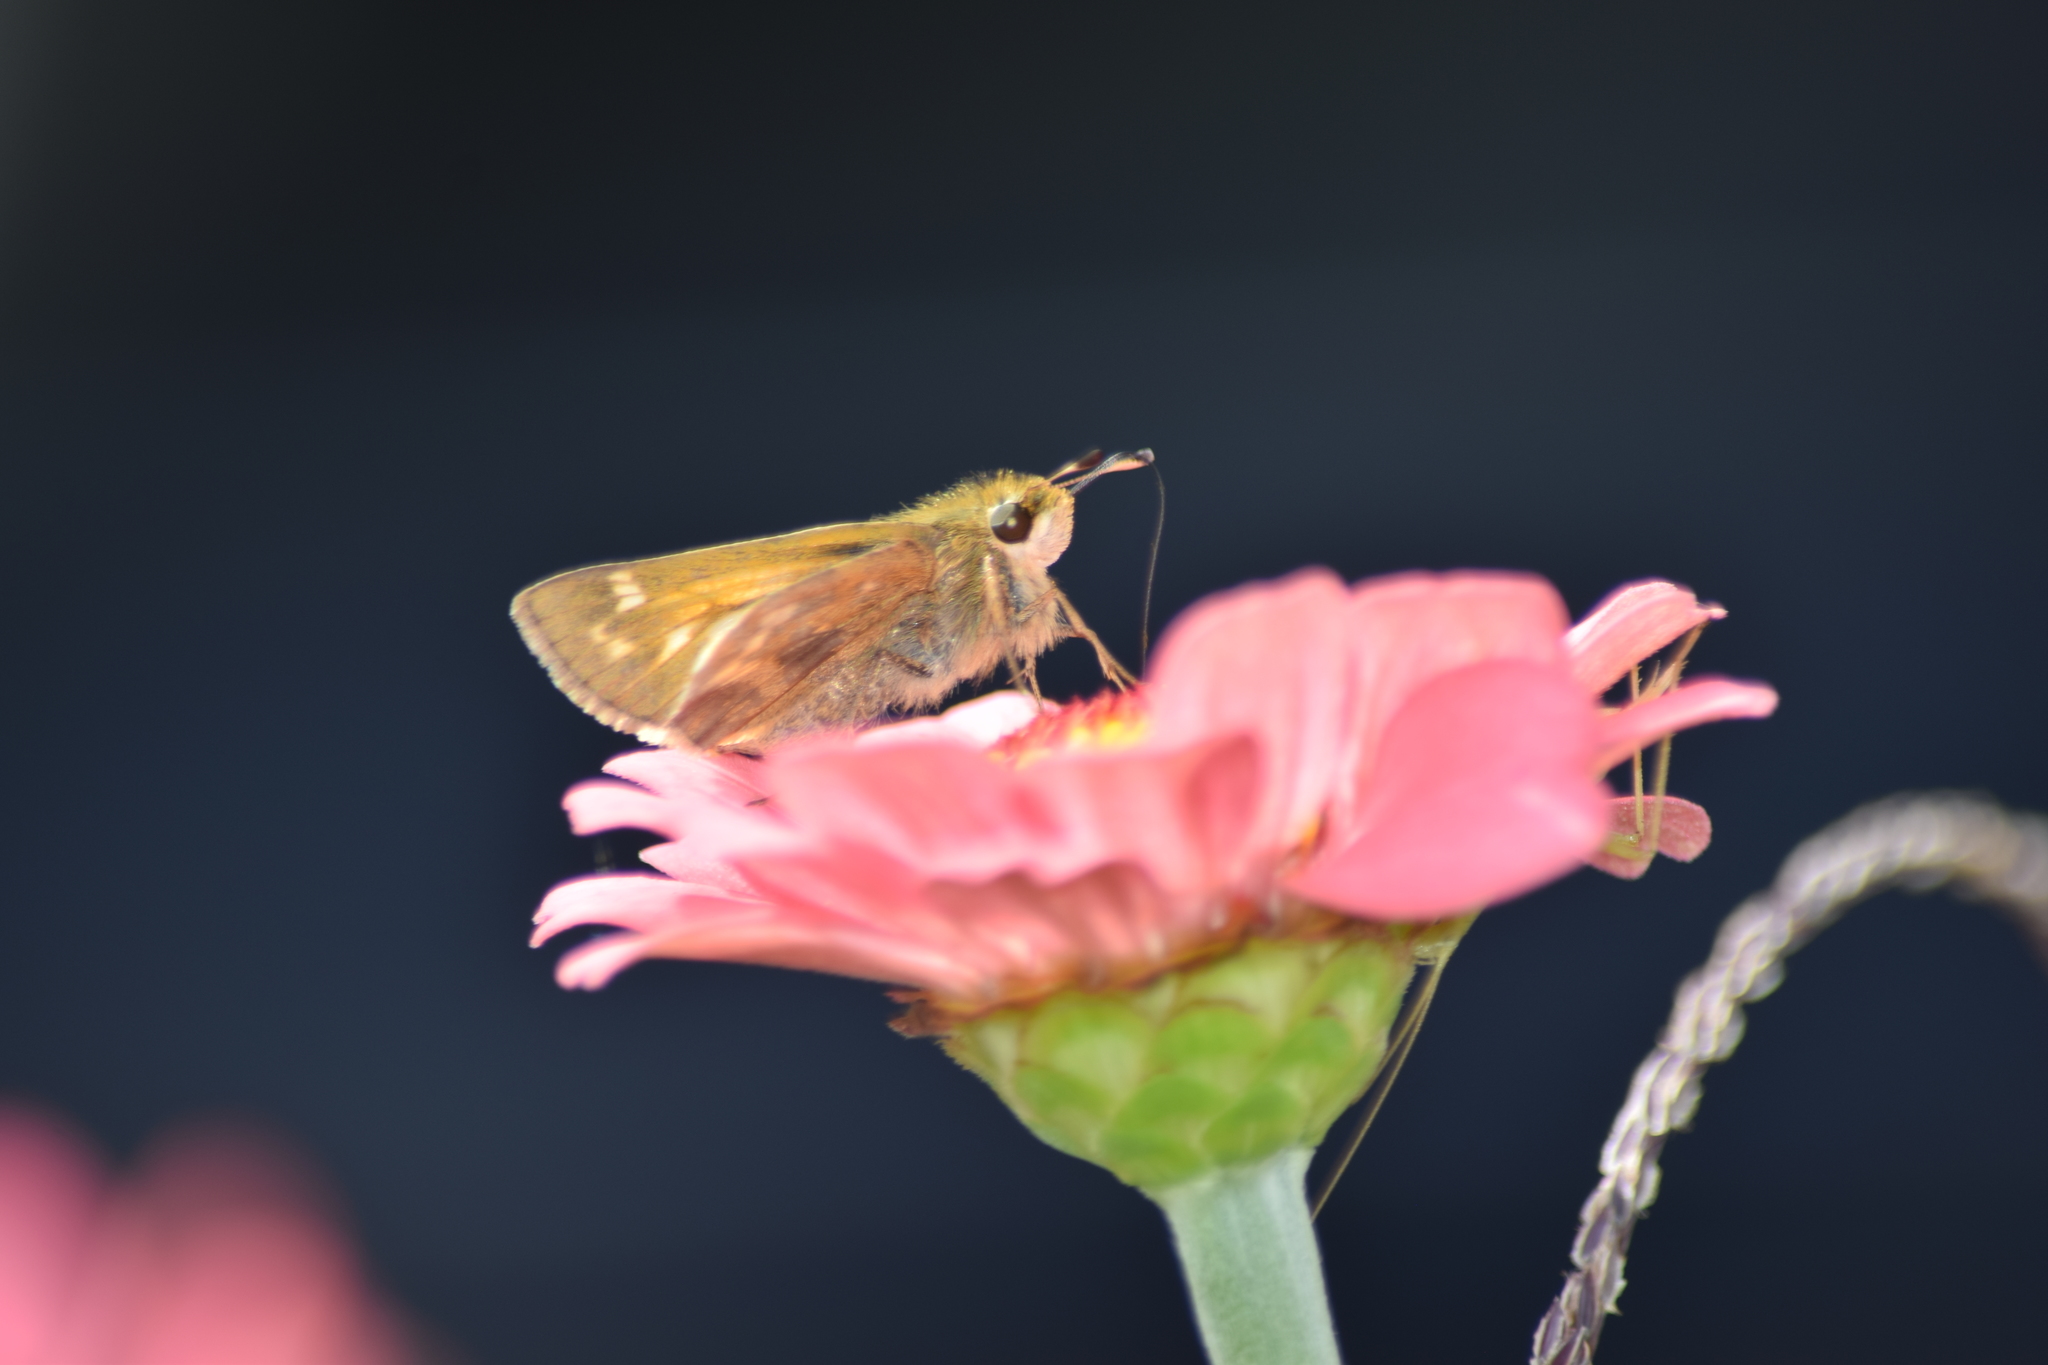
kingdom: Animalia
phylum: Arthropoda
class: Insecta
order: Lepidoptera
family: Hesperiidae
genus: Atalopedes
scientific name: Atalopedes
